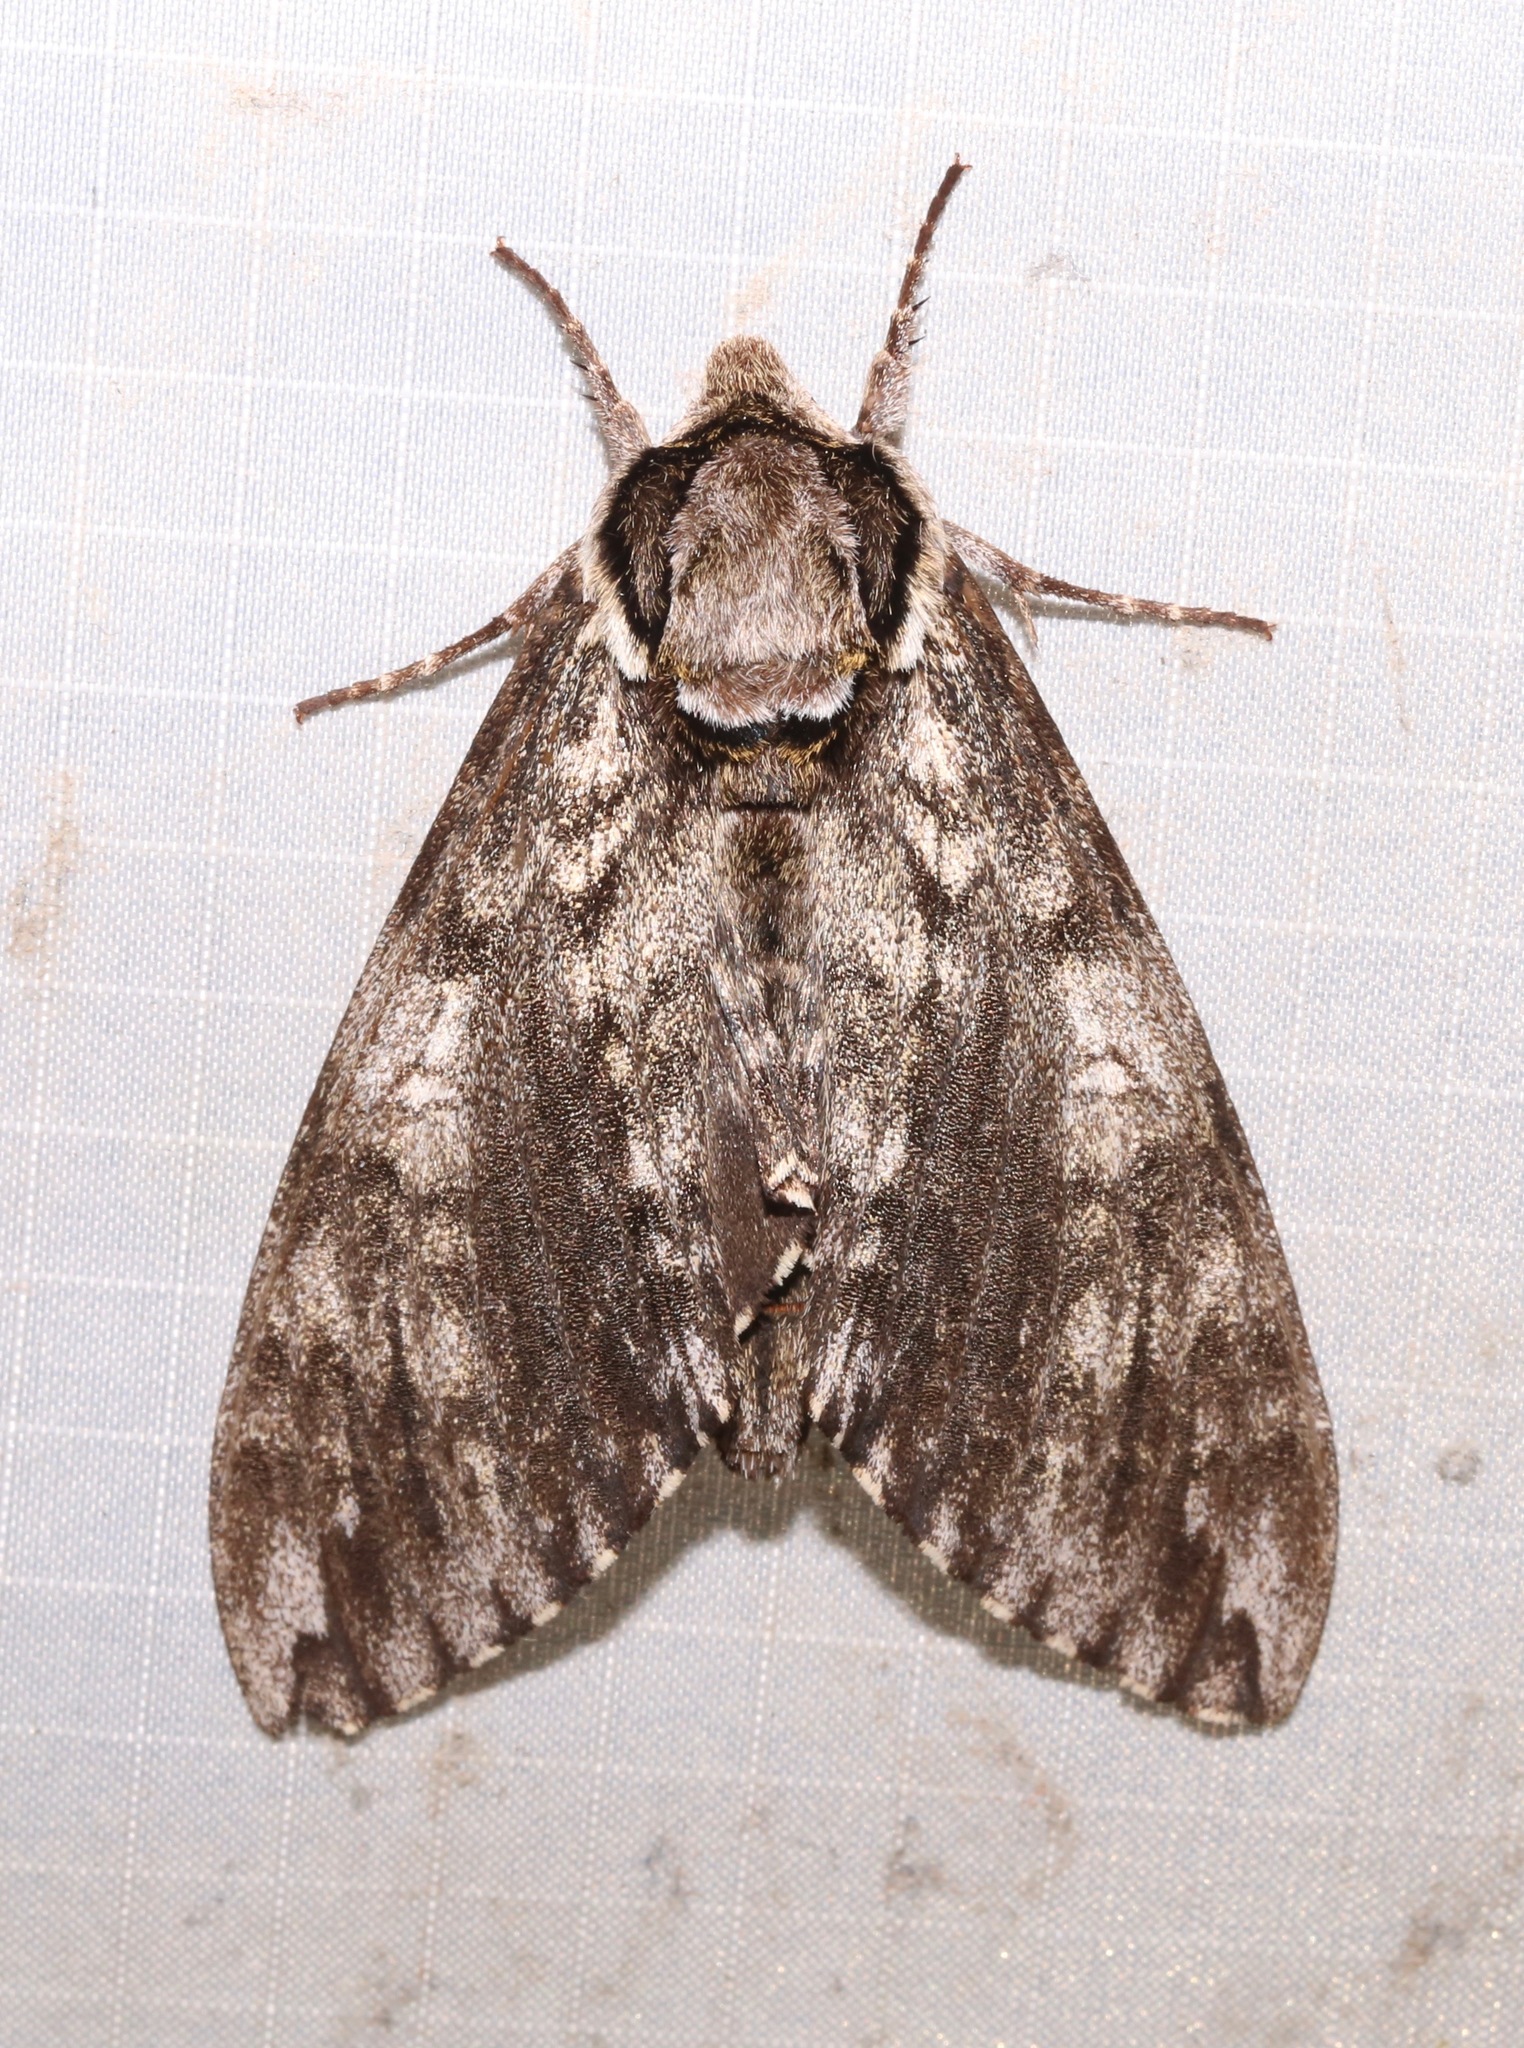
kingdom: Animalia
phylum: Arthropoda
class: Insecta
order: Lepidoptera
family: Sphingidae
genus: Ceratomia
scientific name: Ceratomia undulosa
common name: Waved sphinx
